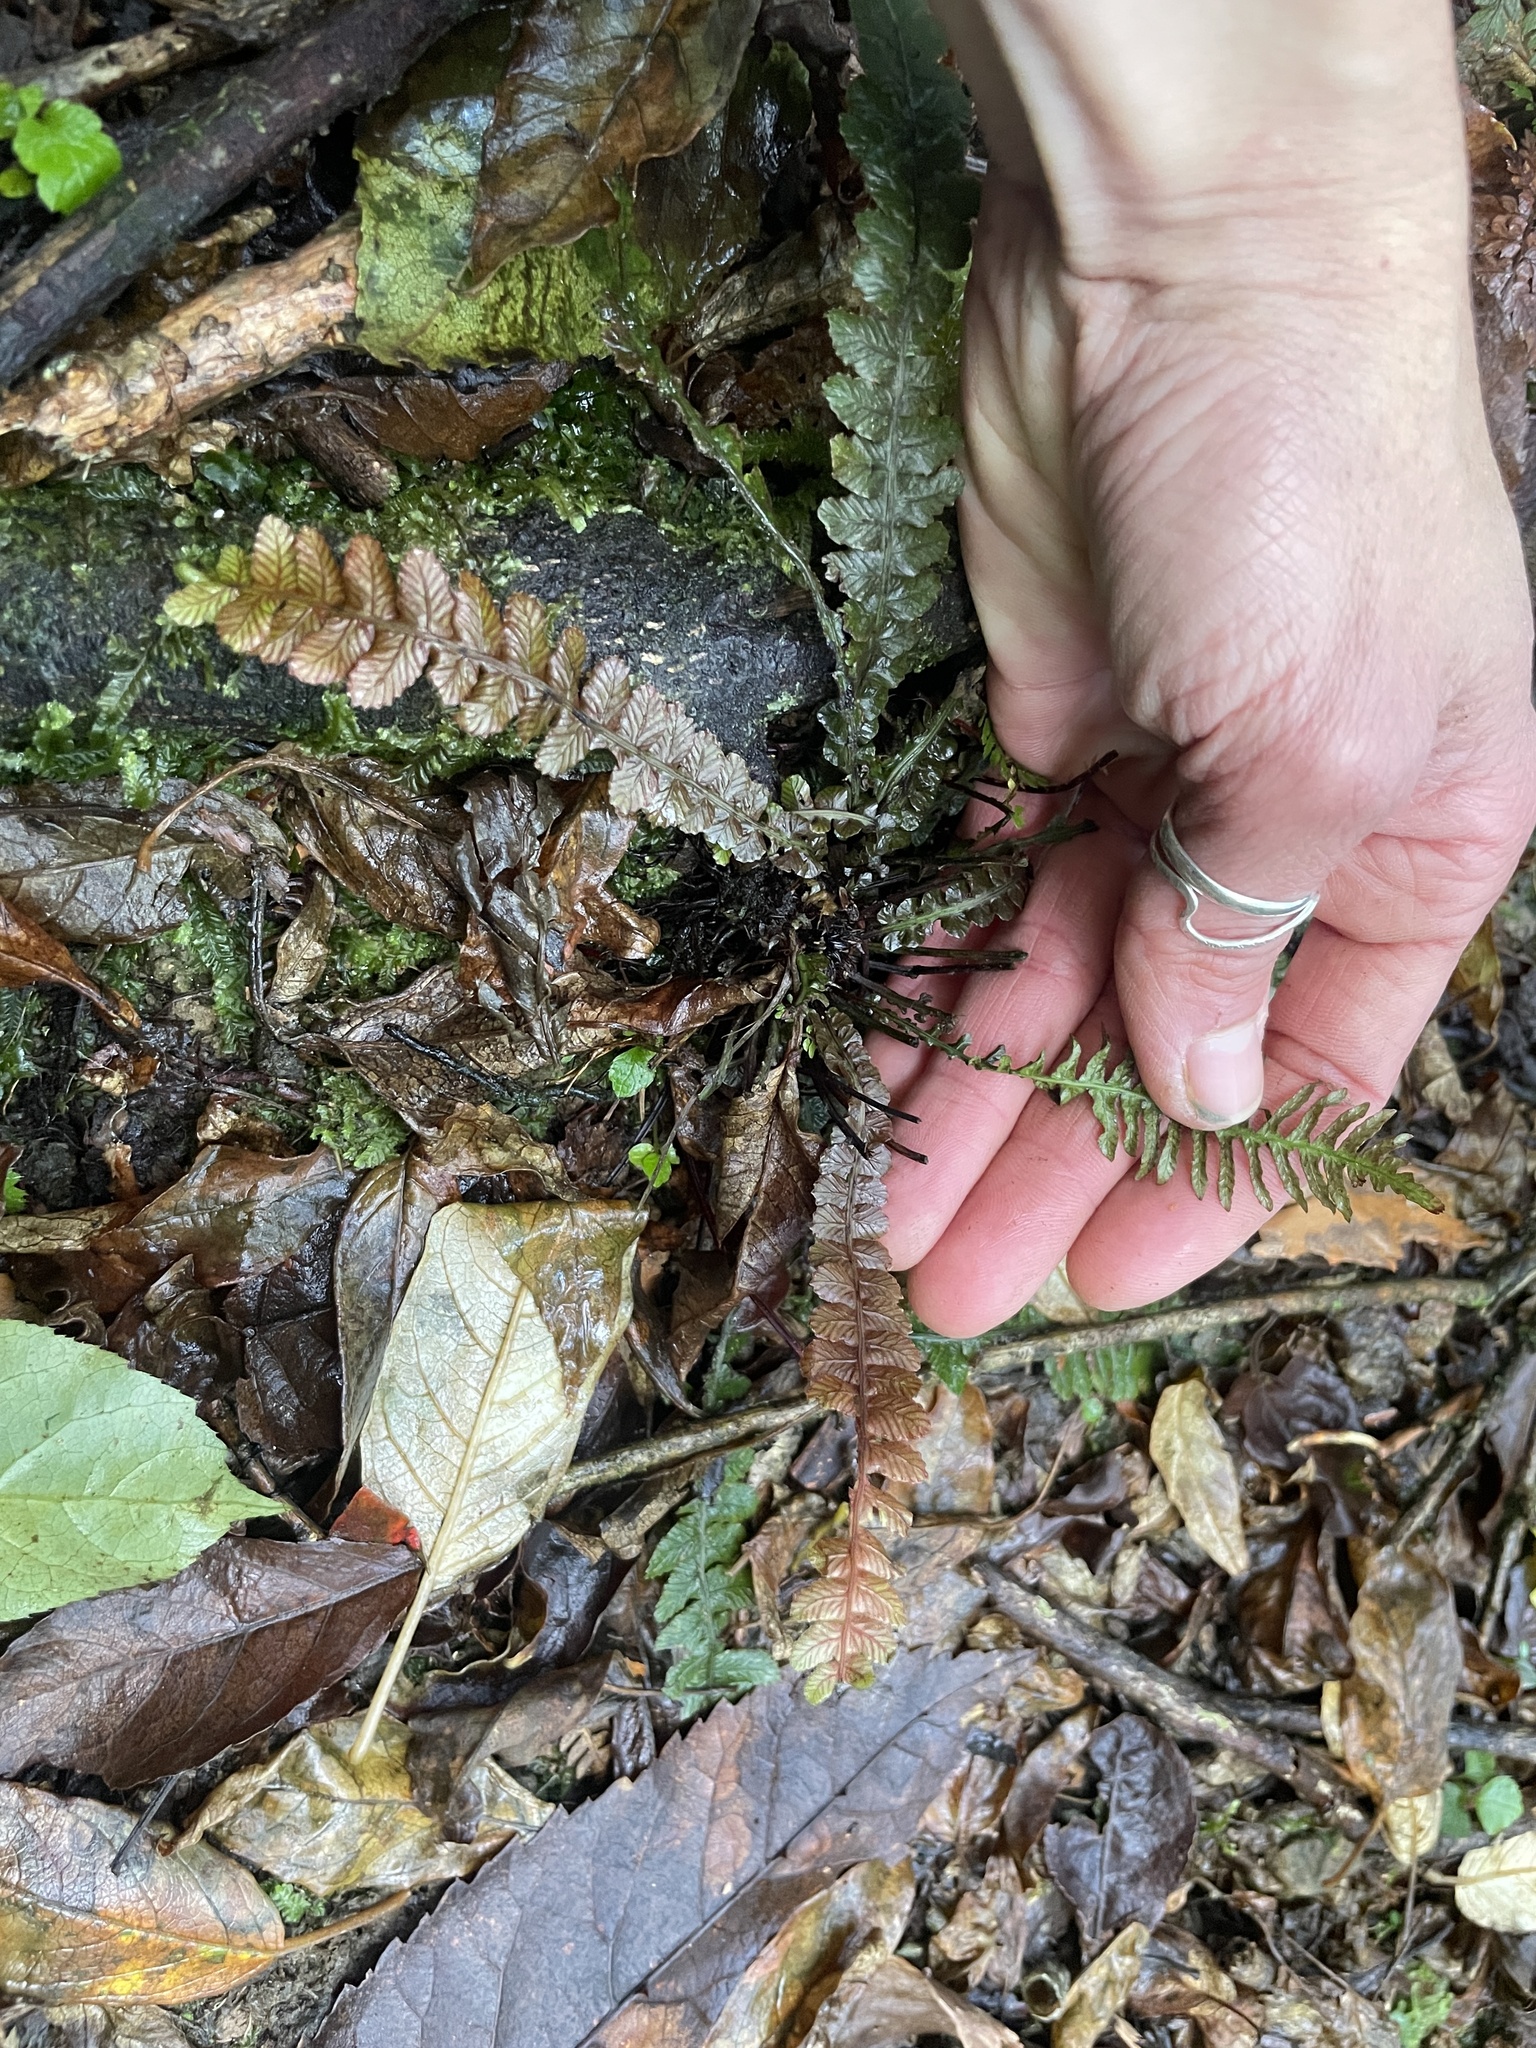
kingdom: Plantae
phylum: Tracheophyta
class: Polypodiopsida
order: Polypodiales
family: Blechnaceae
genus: Austroblechnum
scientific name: Austroblechnum membranaceum
